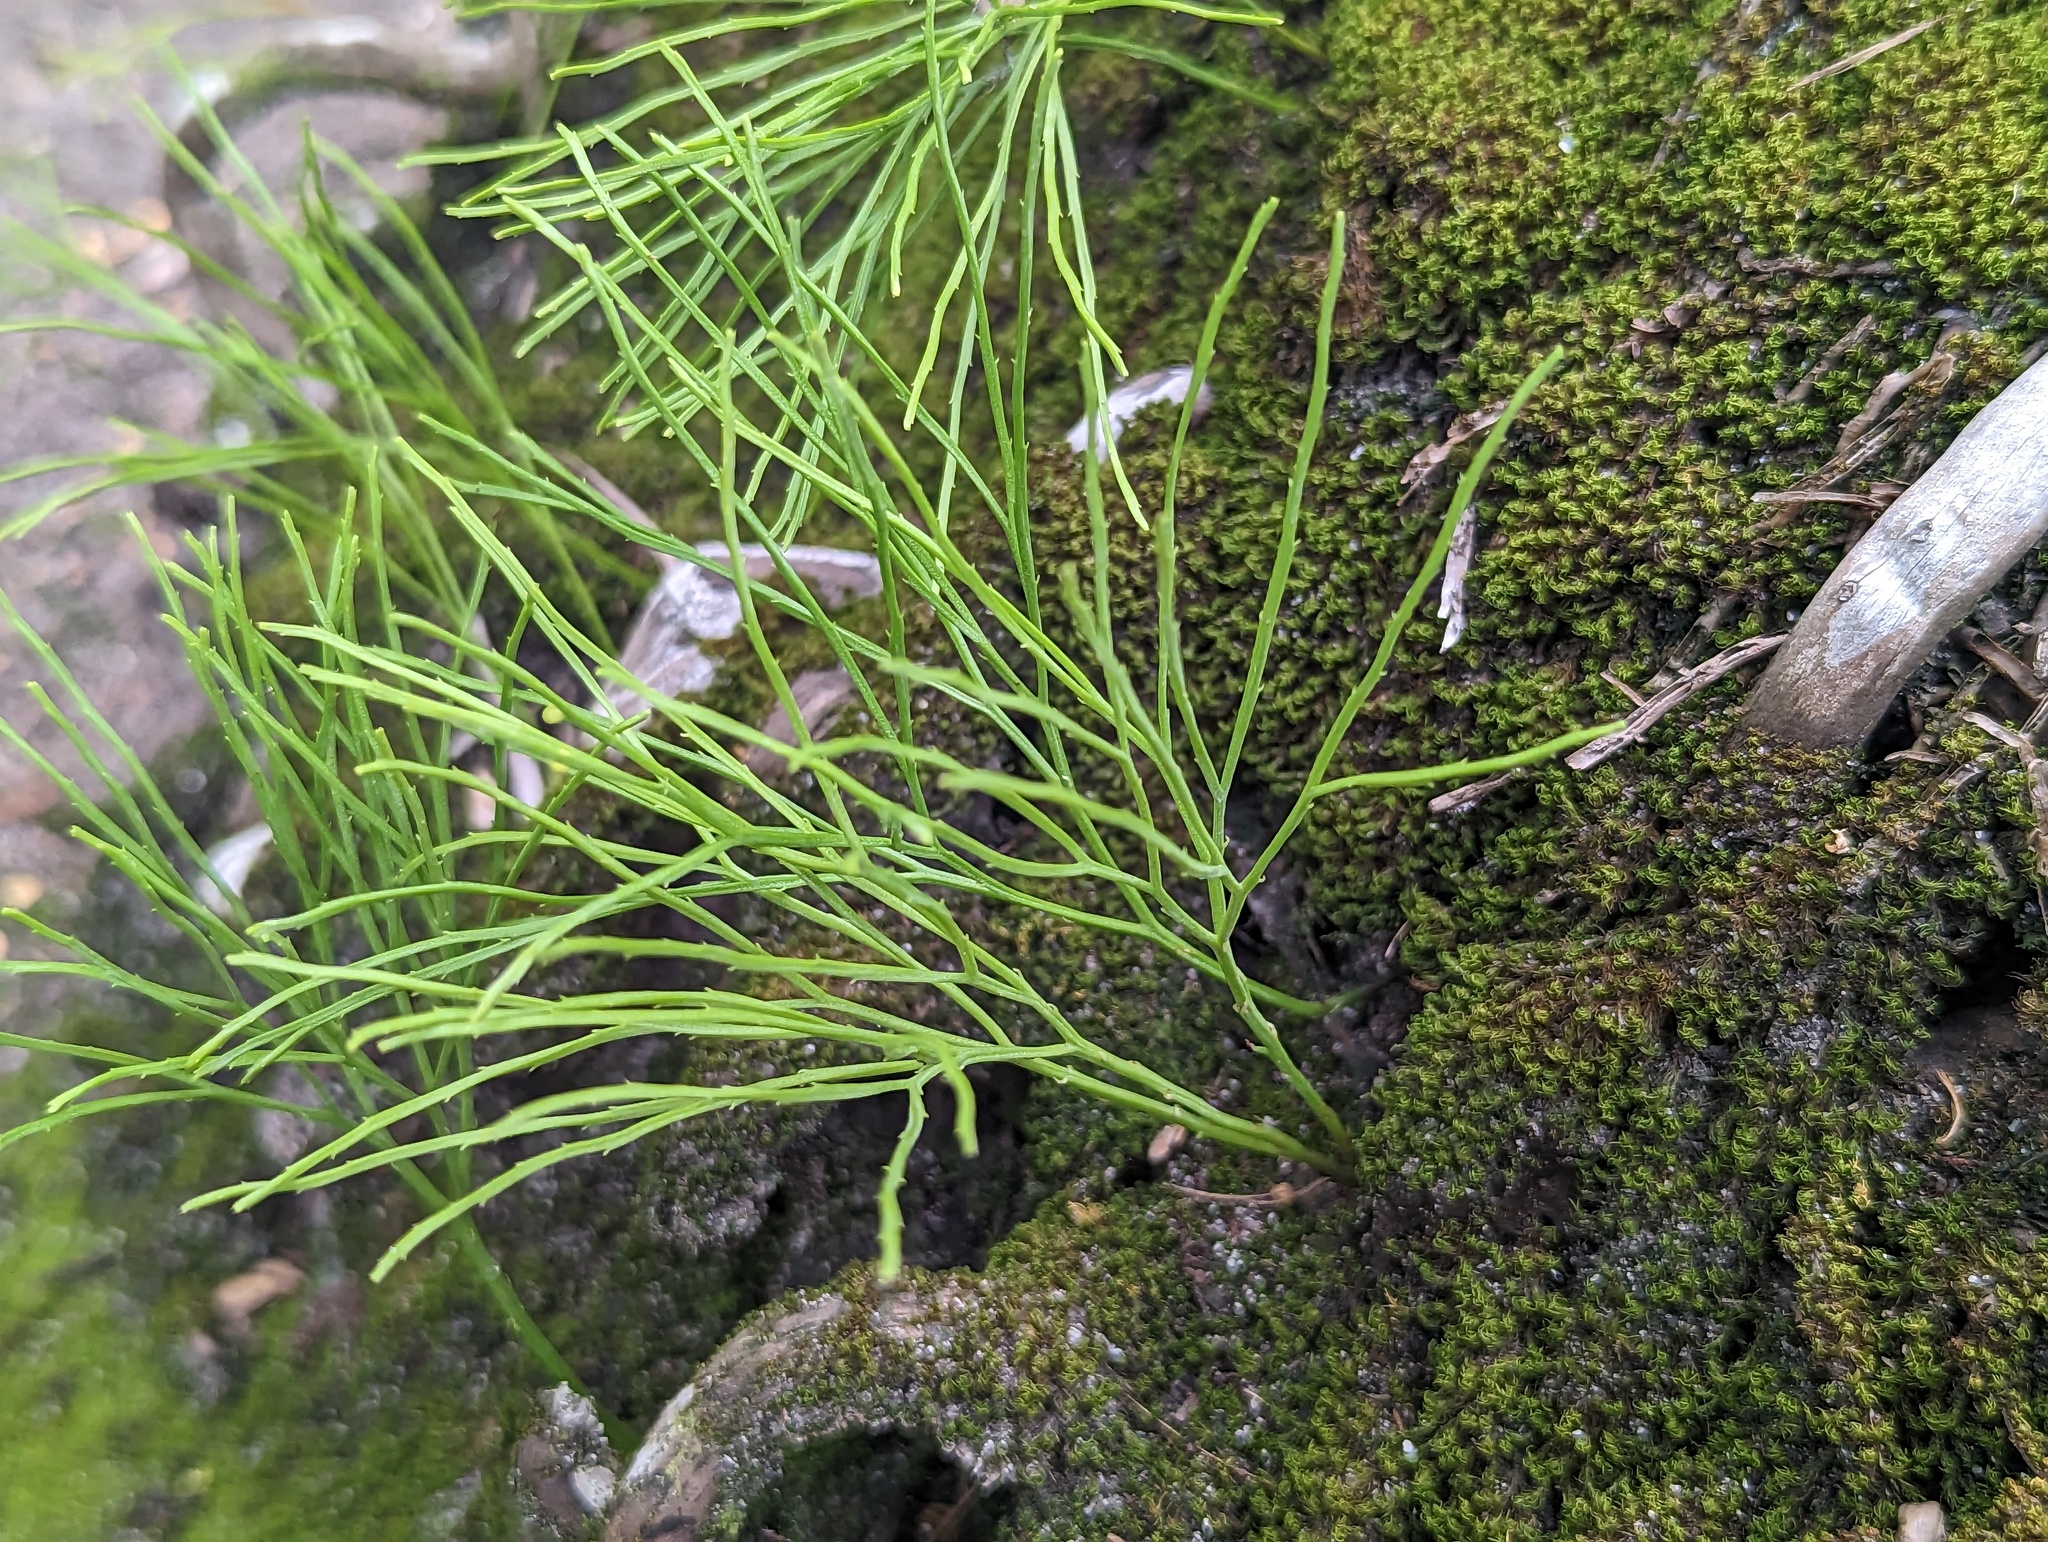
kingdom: Plantae
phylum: Tracheophyta
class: Polypodiopsida
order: Psilotales
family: Psilotaceae
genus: Psilotum
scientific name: Psilotum nudum
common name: Skeleton fork fern
